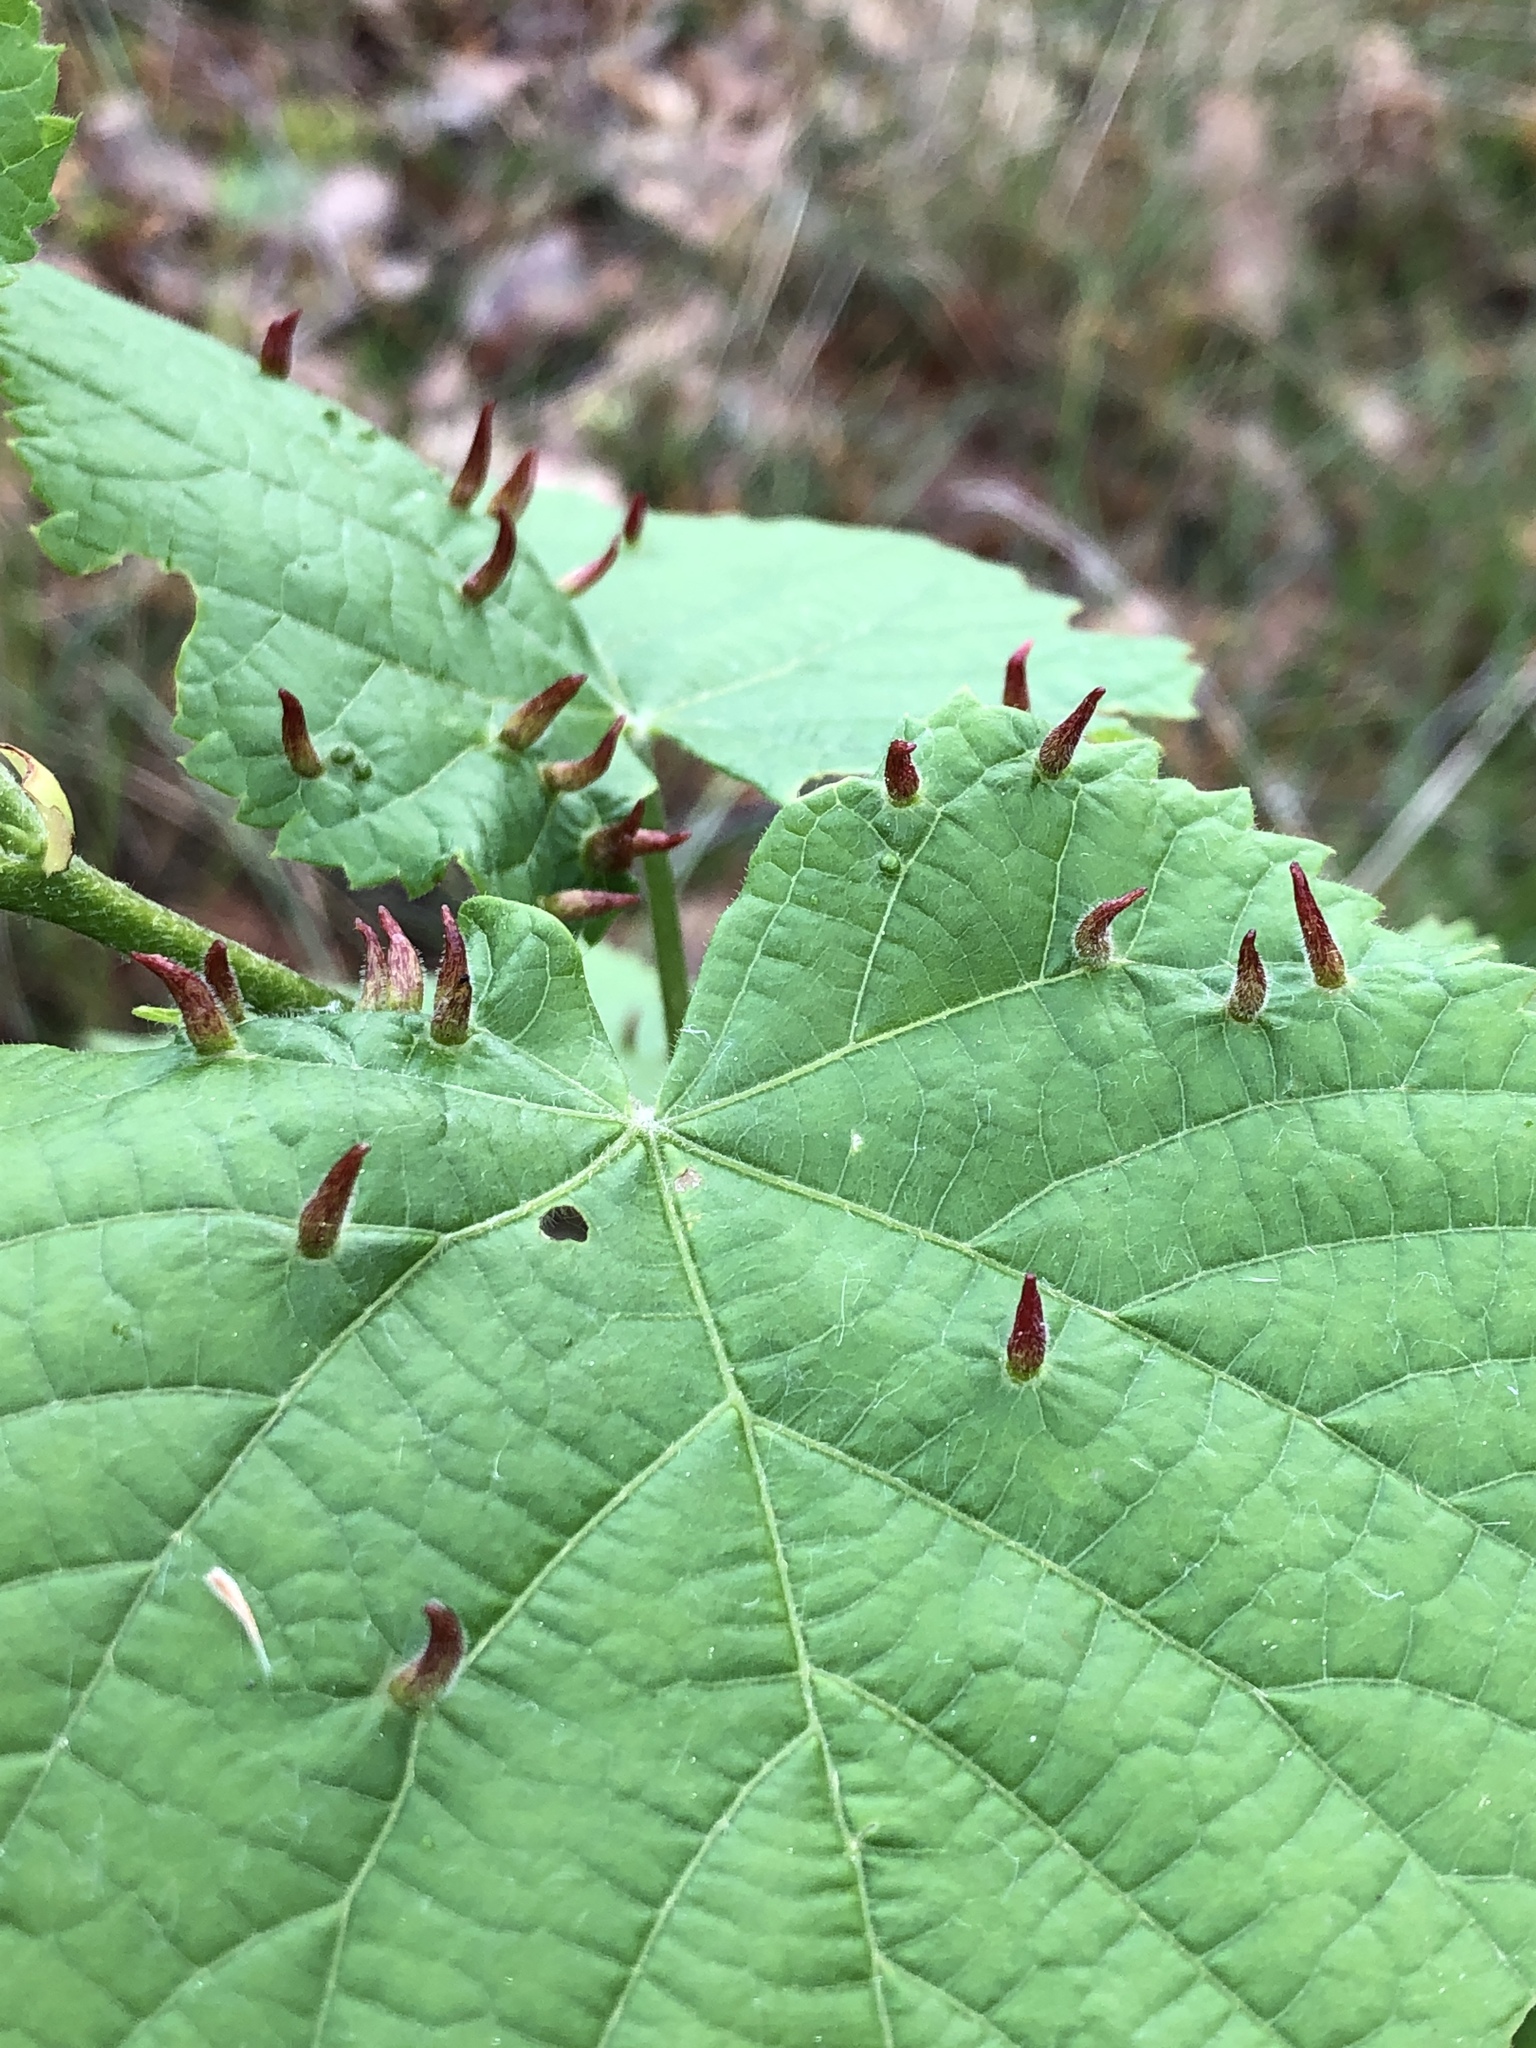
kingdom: Animalia
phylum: Arthropoda
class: Arachnida
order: Trombidiformes
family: Eriophyidae
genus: Eriophyes
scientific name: Eriophyes tiliae
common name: Red nail gall mite
